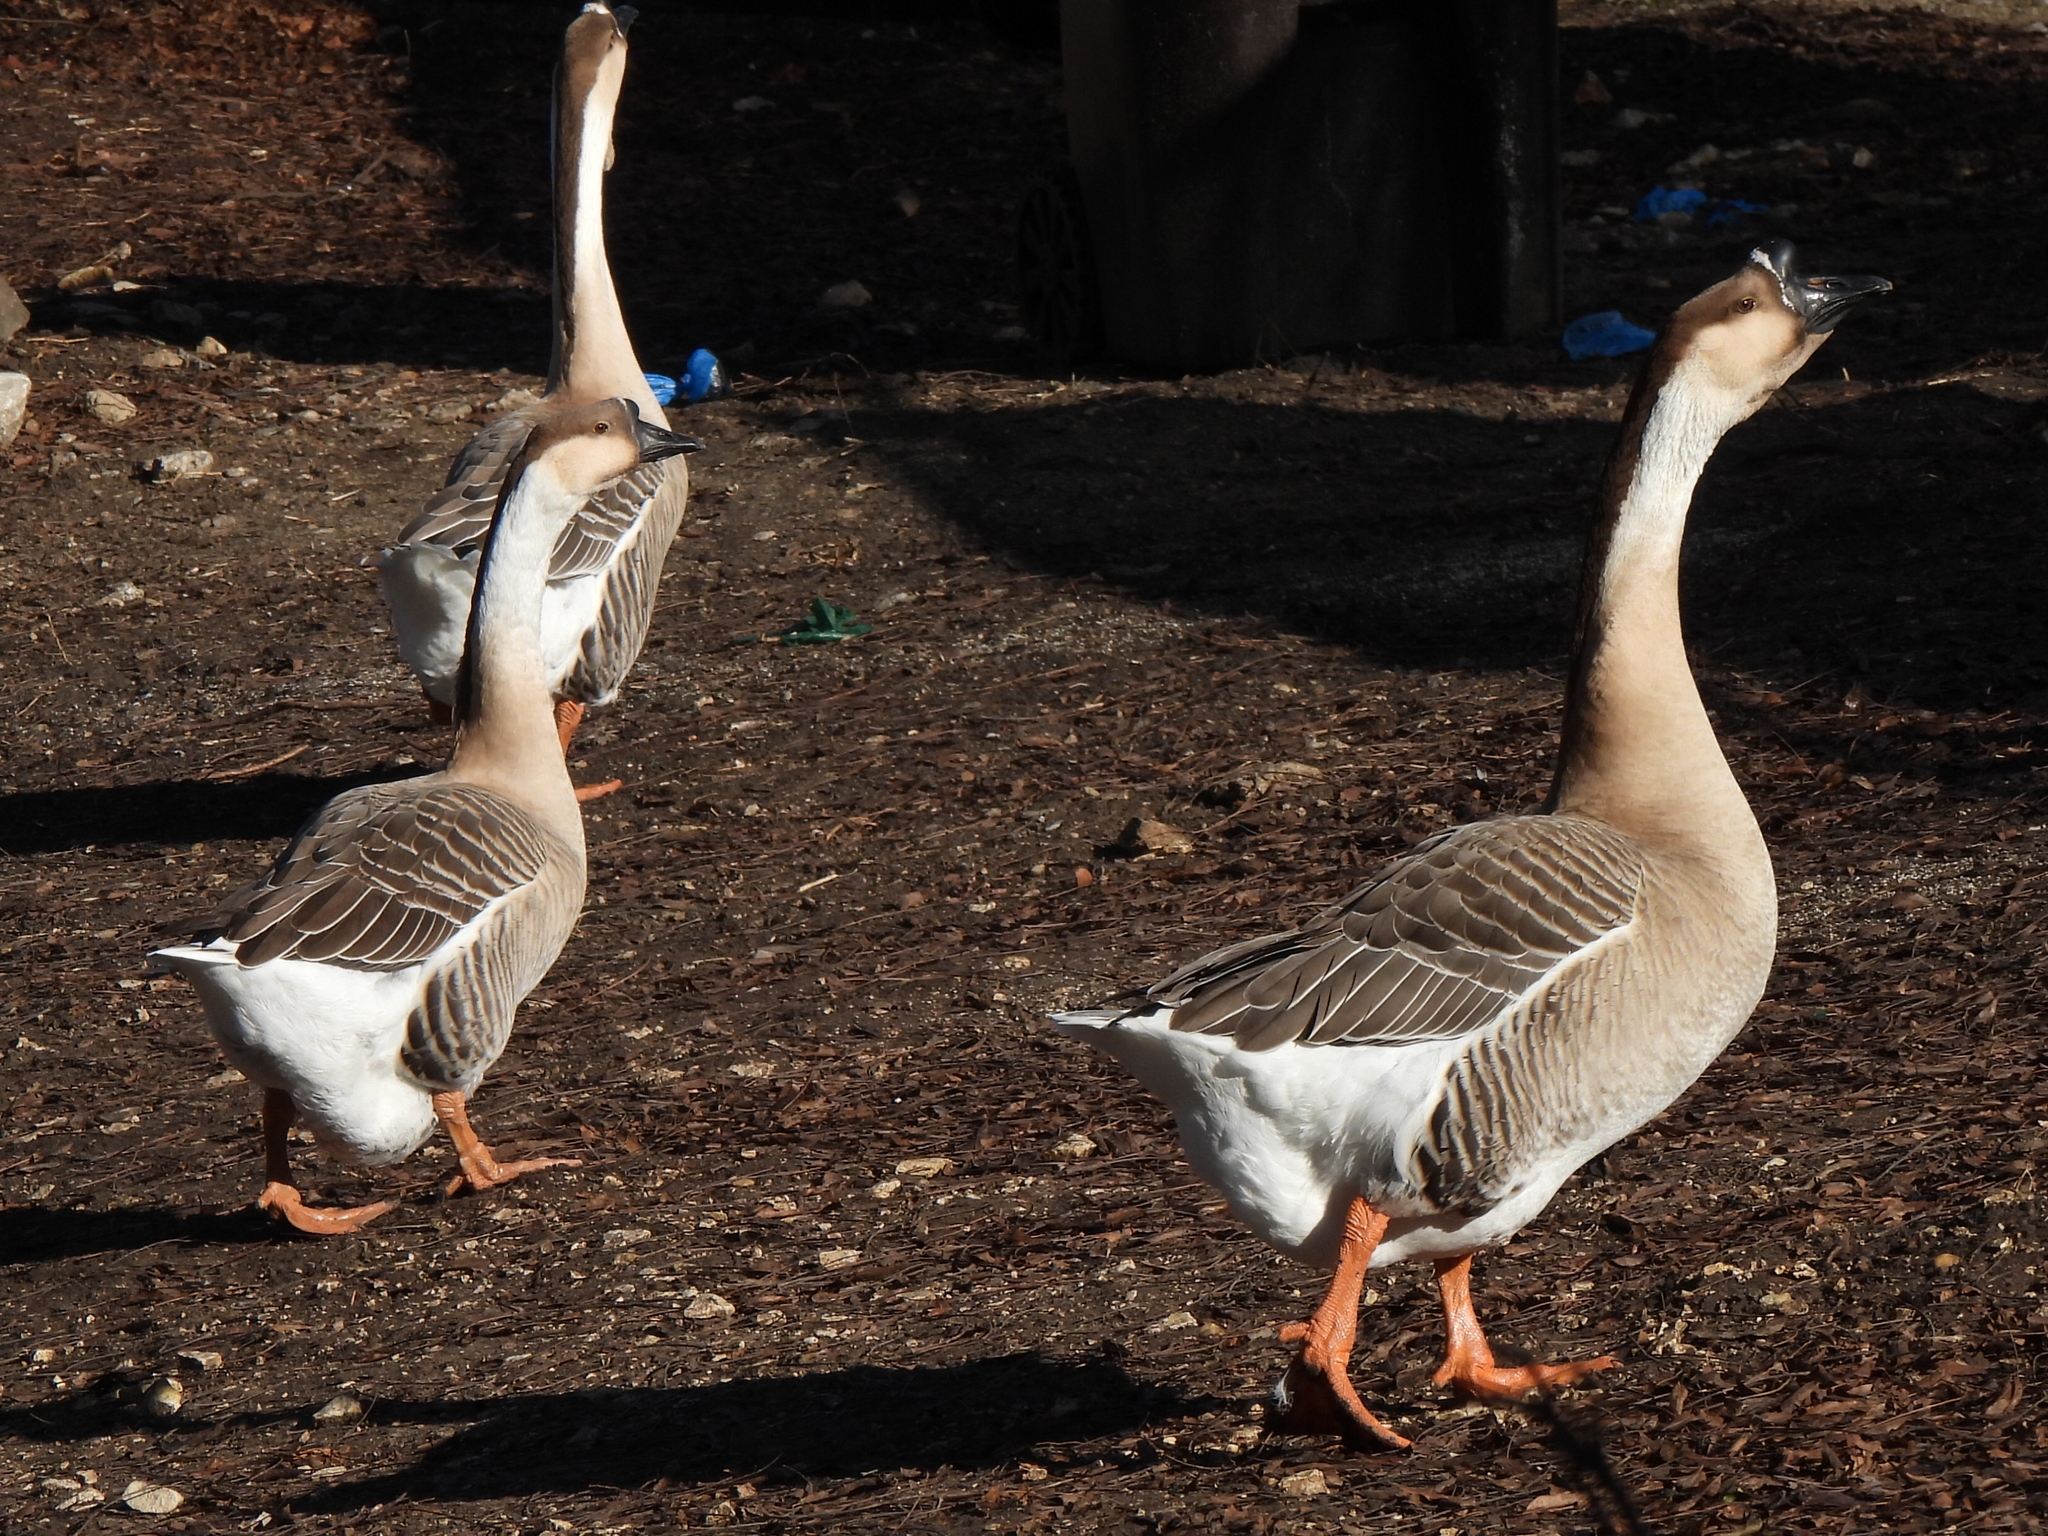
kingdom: Animalia
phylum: Chordata
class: Aves
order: Anseriformes
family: Anatidae
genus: Anser
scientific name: Anser cygnoides
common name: Swan goose
